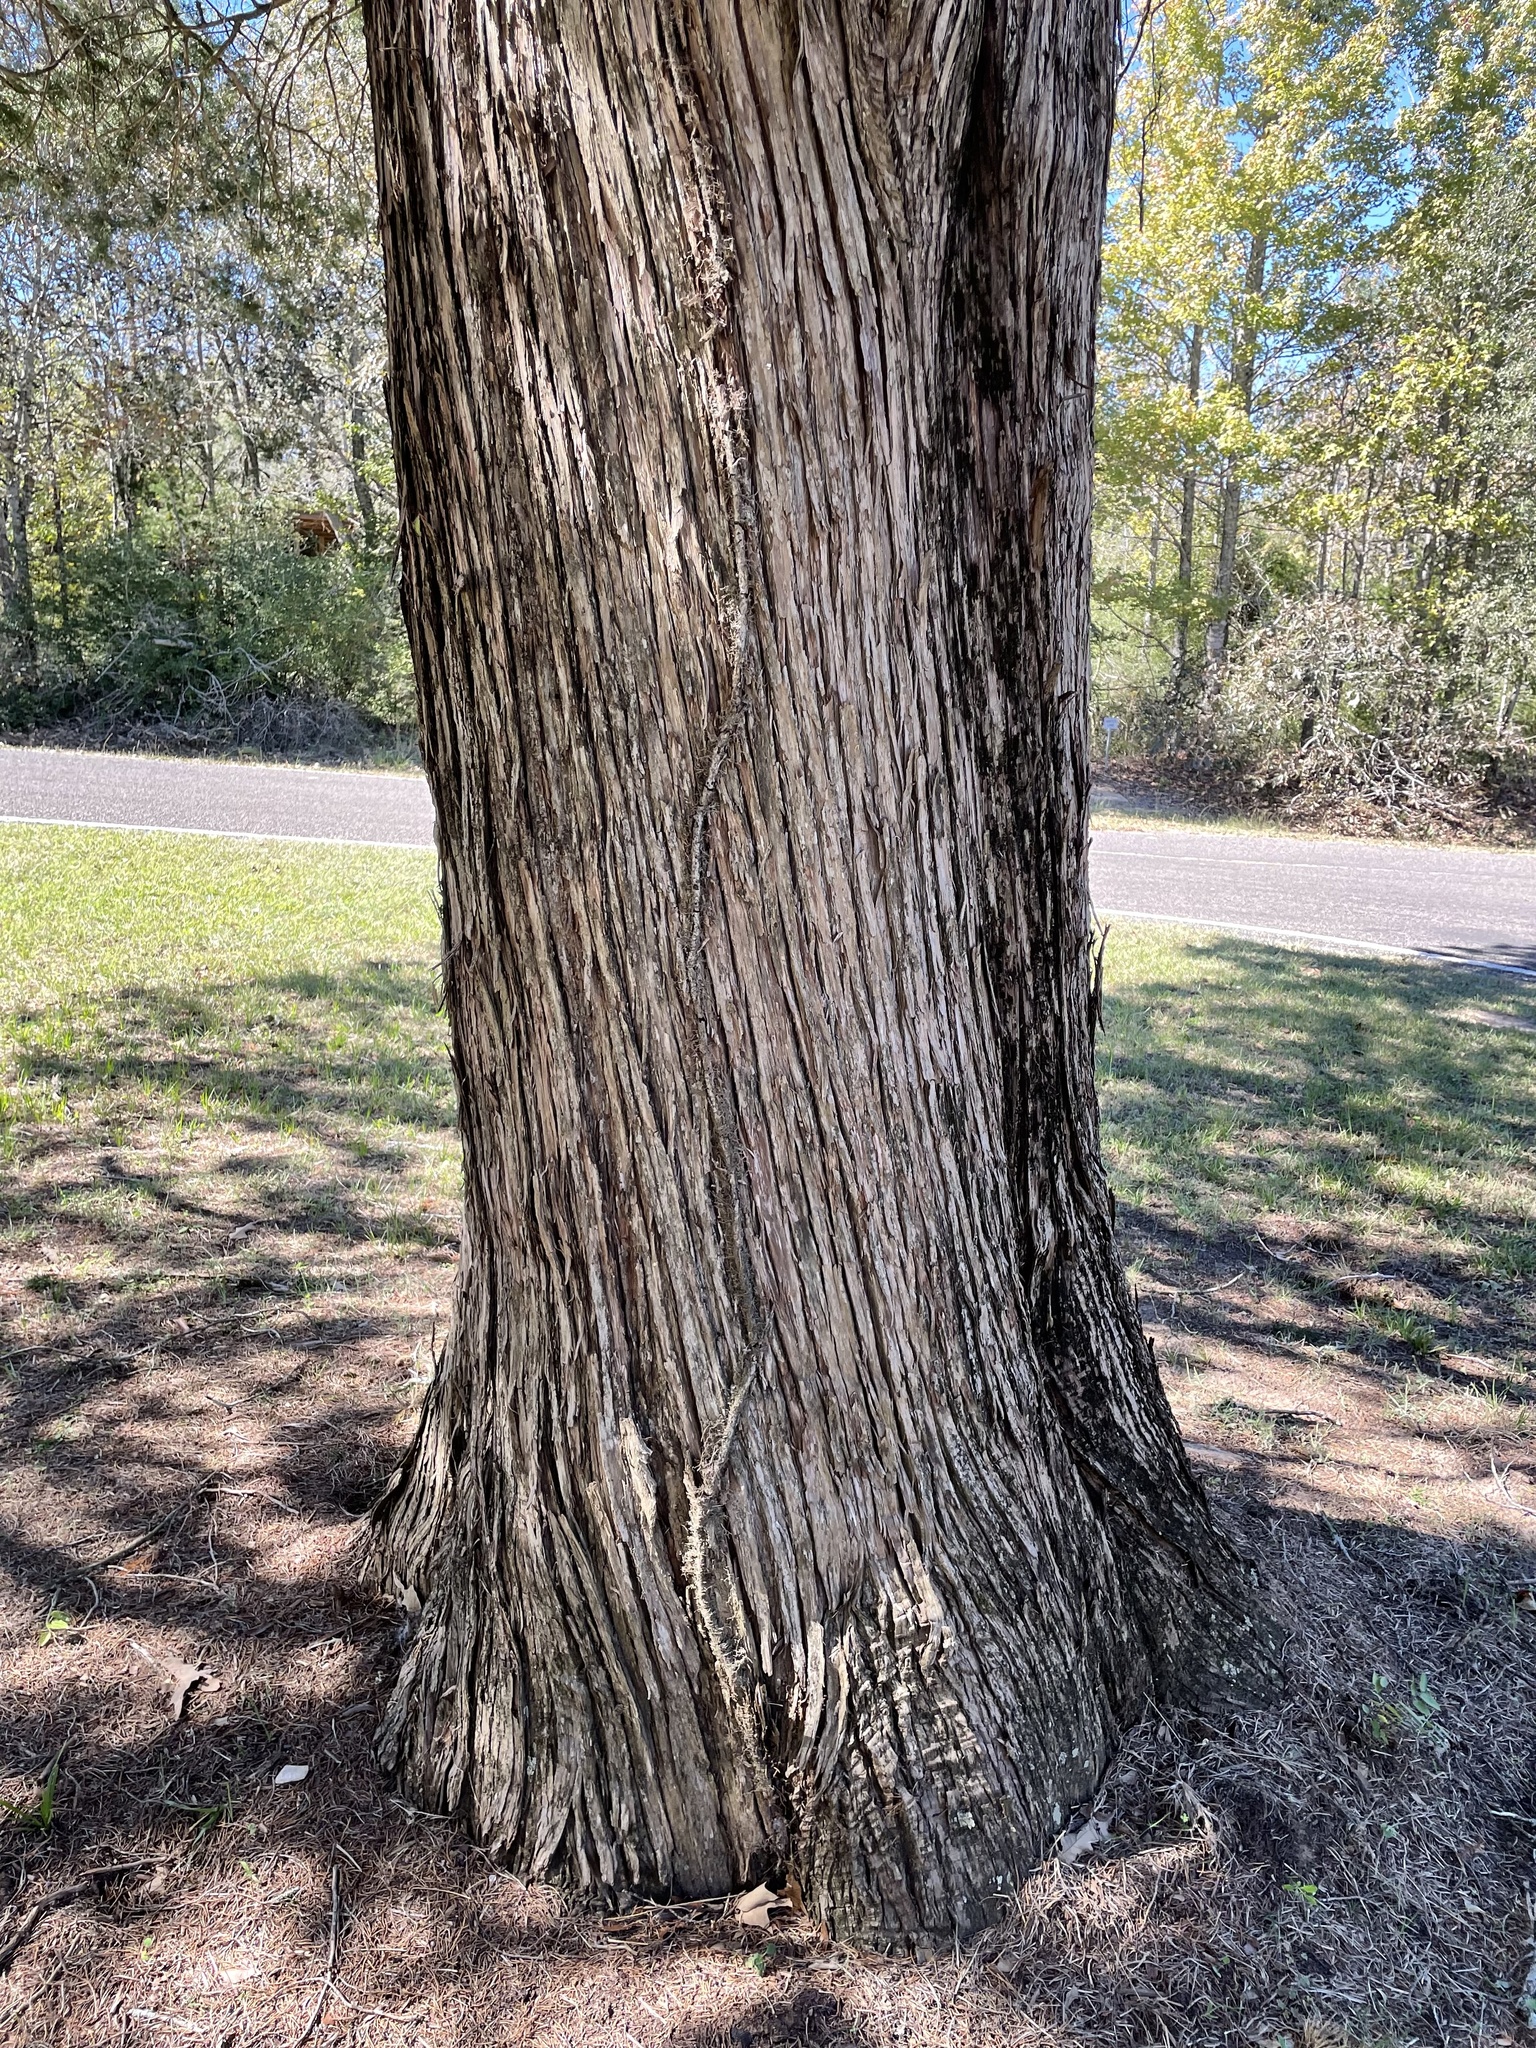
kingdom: Plantae
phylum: Tracheophyta
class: Pinopsida
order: Pinales
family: Cupressaceae
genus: Juniperus
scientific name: Juniperus virginiana
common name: Red juniper
